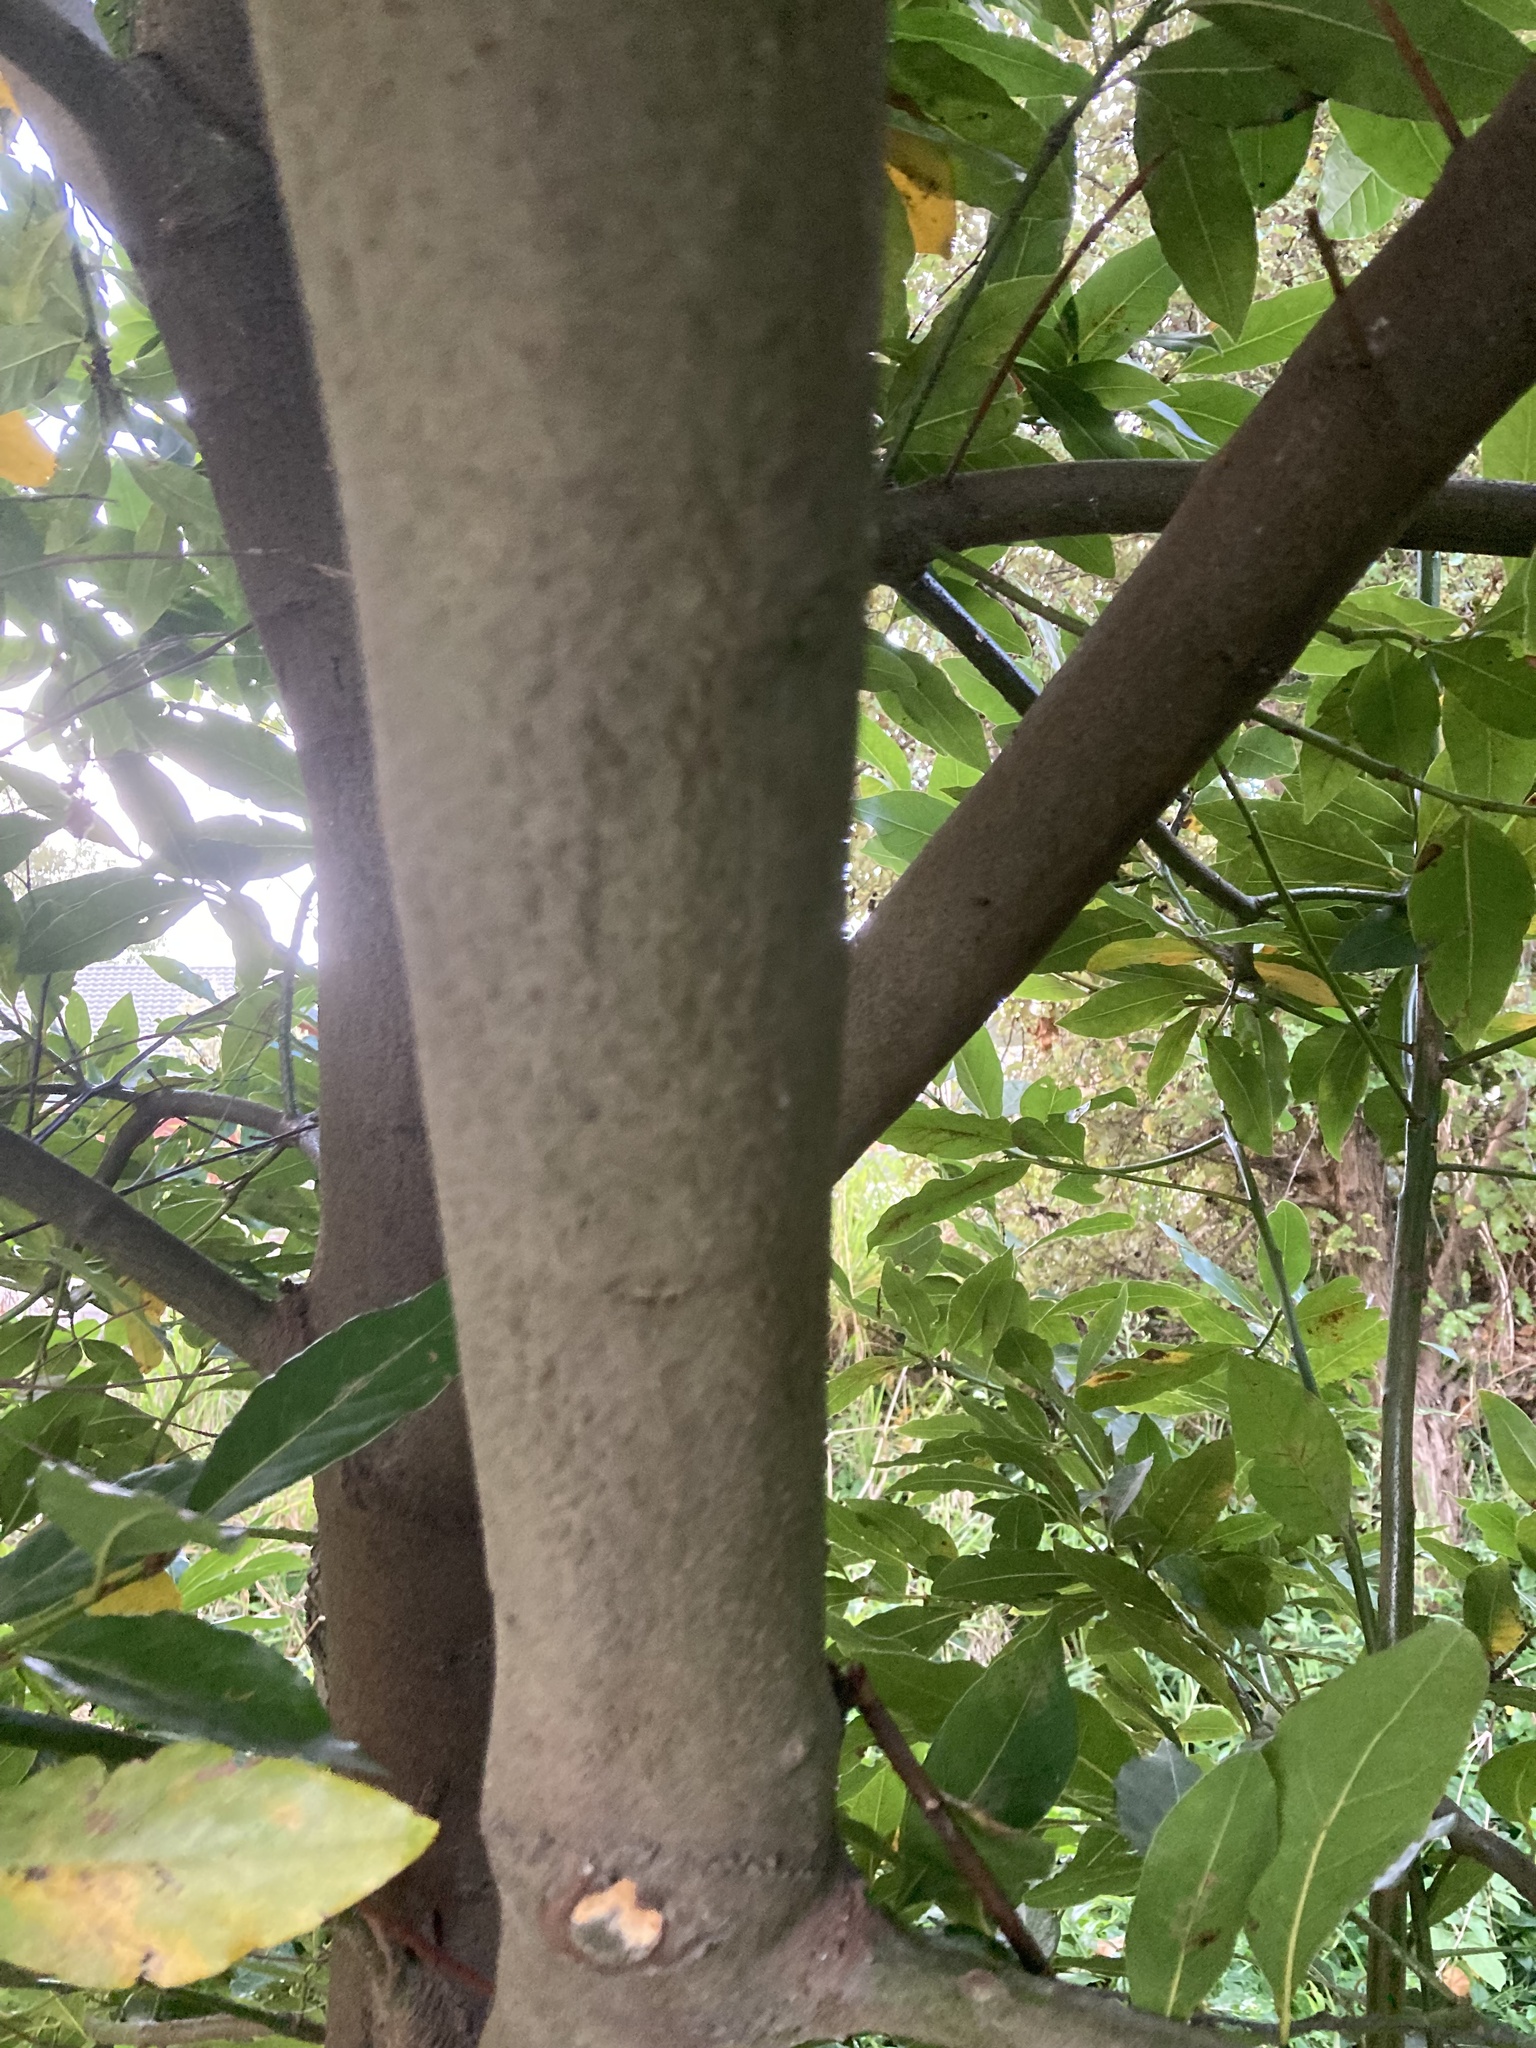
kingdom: Plantae
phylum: Tracheophyta
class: Magnoliopsida
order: Laurales
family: Lauraceae
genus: Laurus
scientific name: Laurus nobilis
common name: Bay
